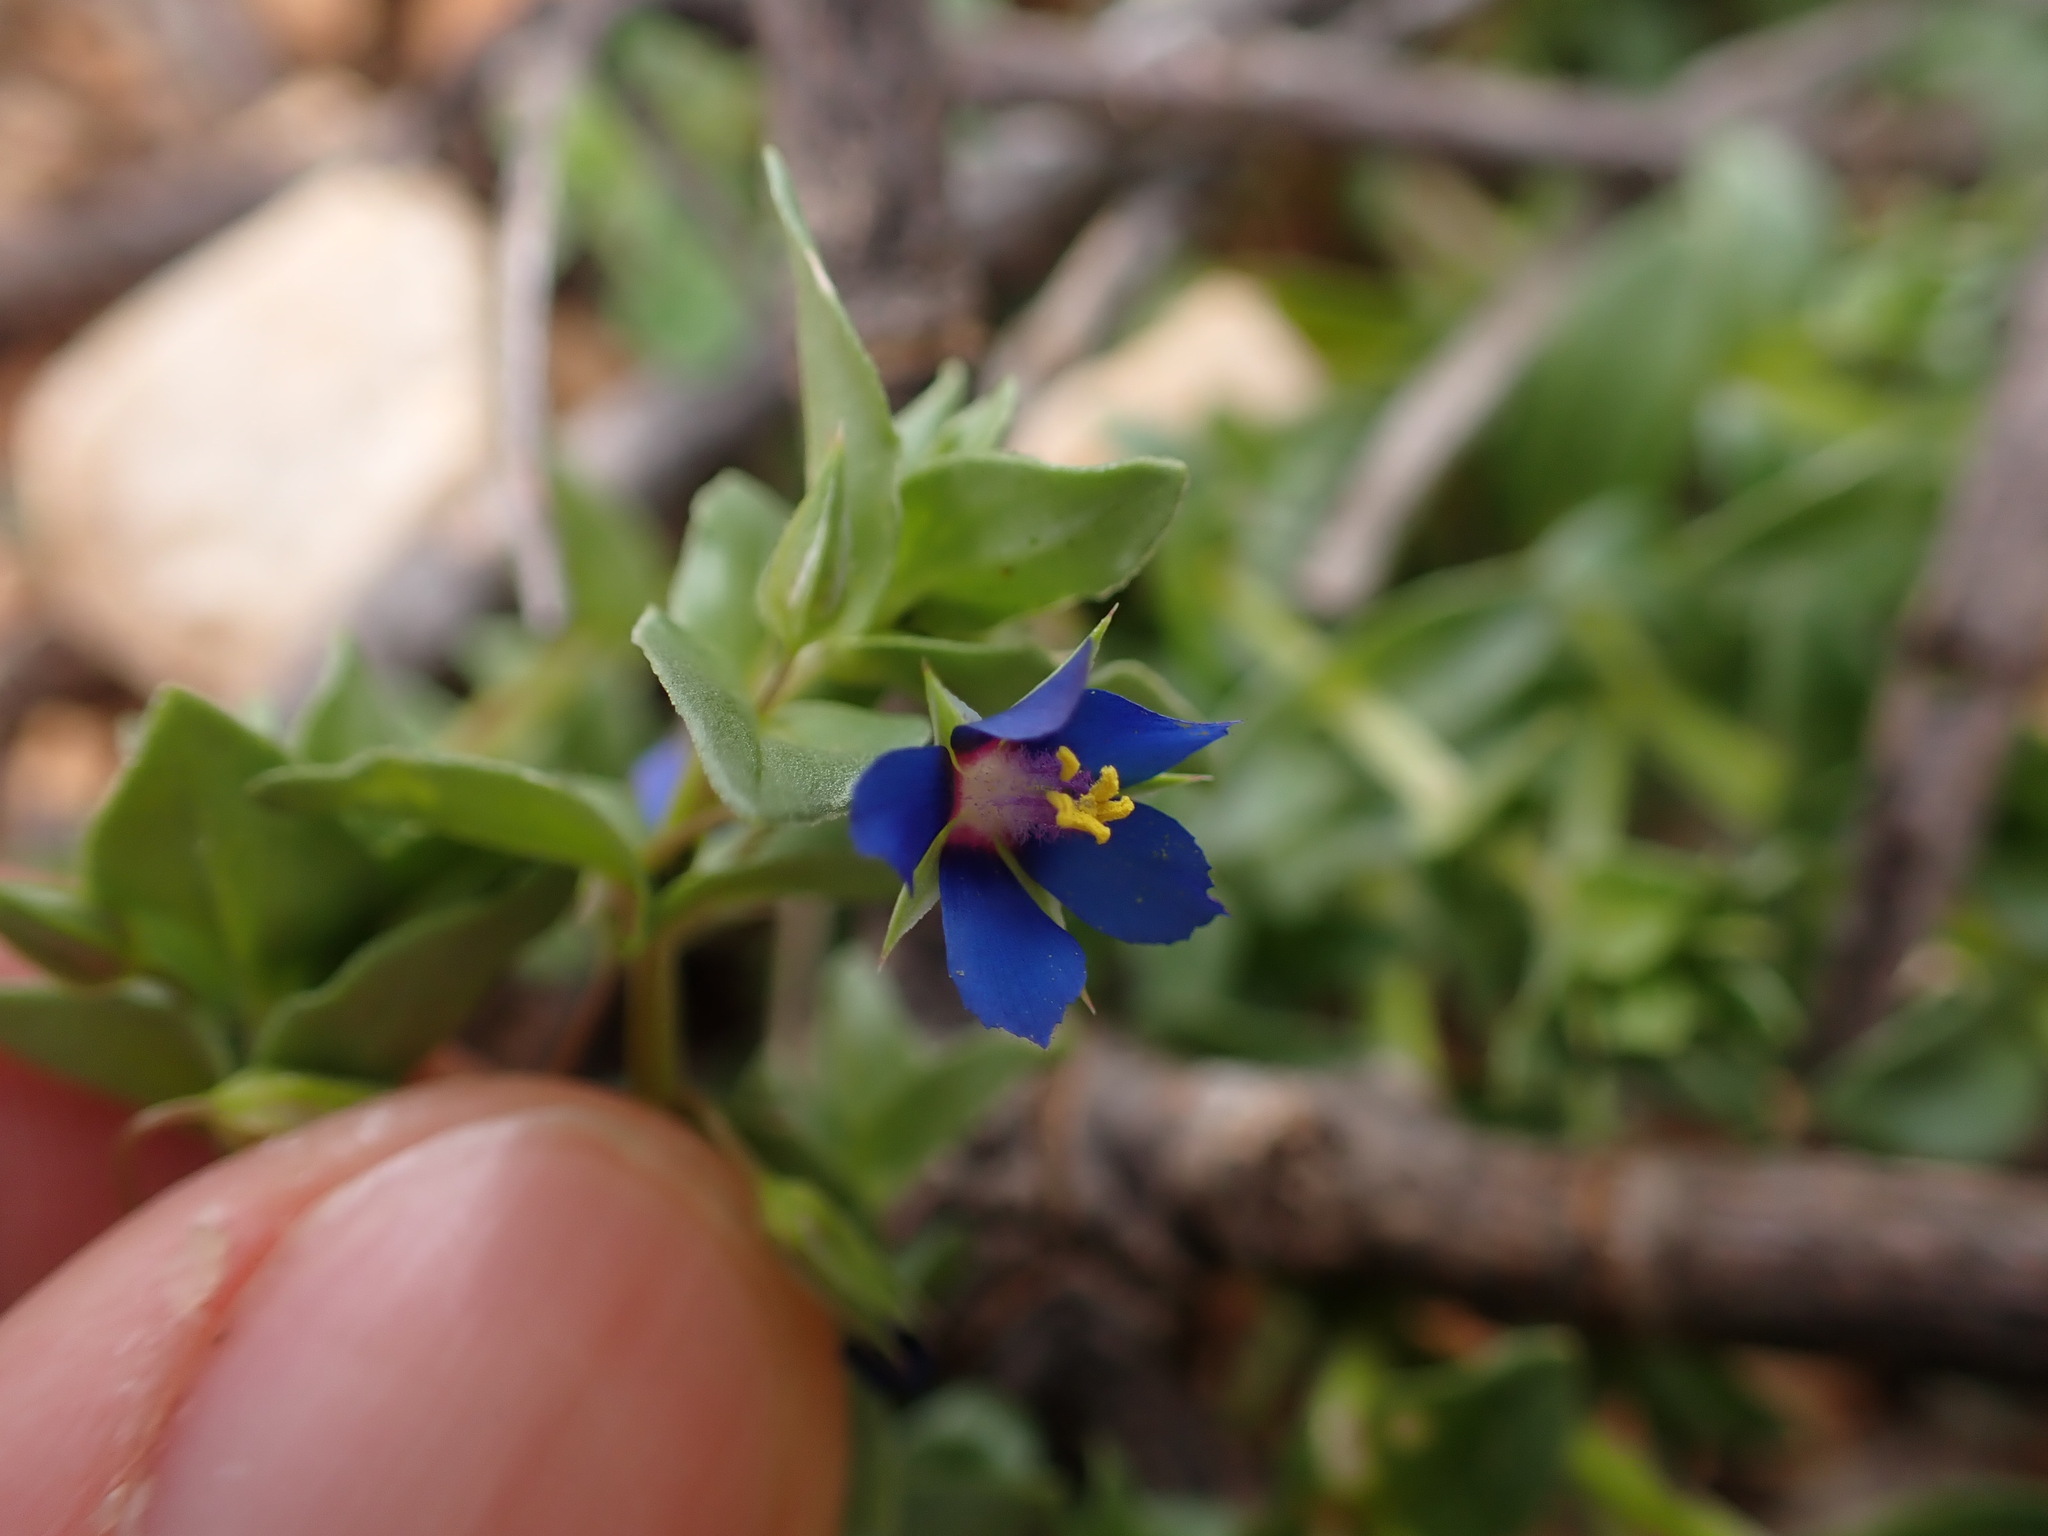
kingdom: Plantae
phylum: Tracheophyta
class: Magnoliopsida
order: Ericales
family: Primulaceae
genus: Lysimachia
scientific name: Lysimachia foemina
